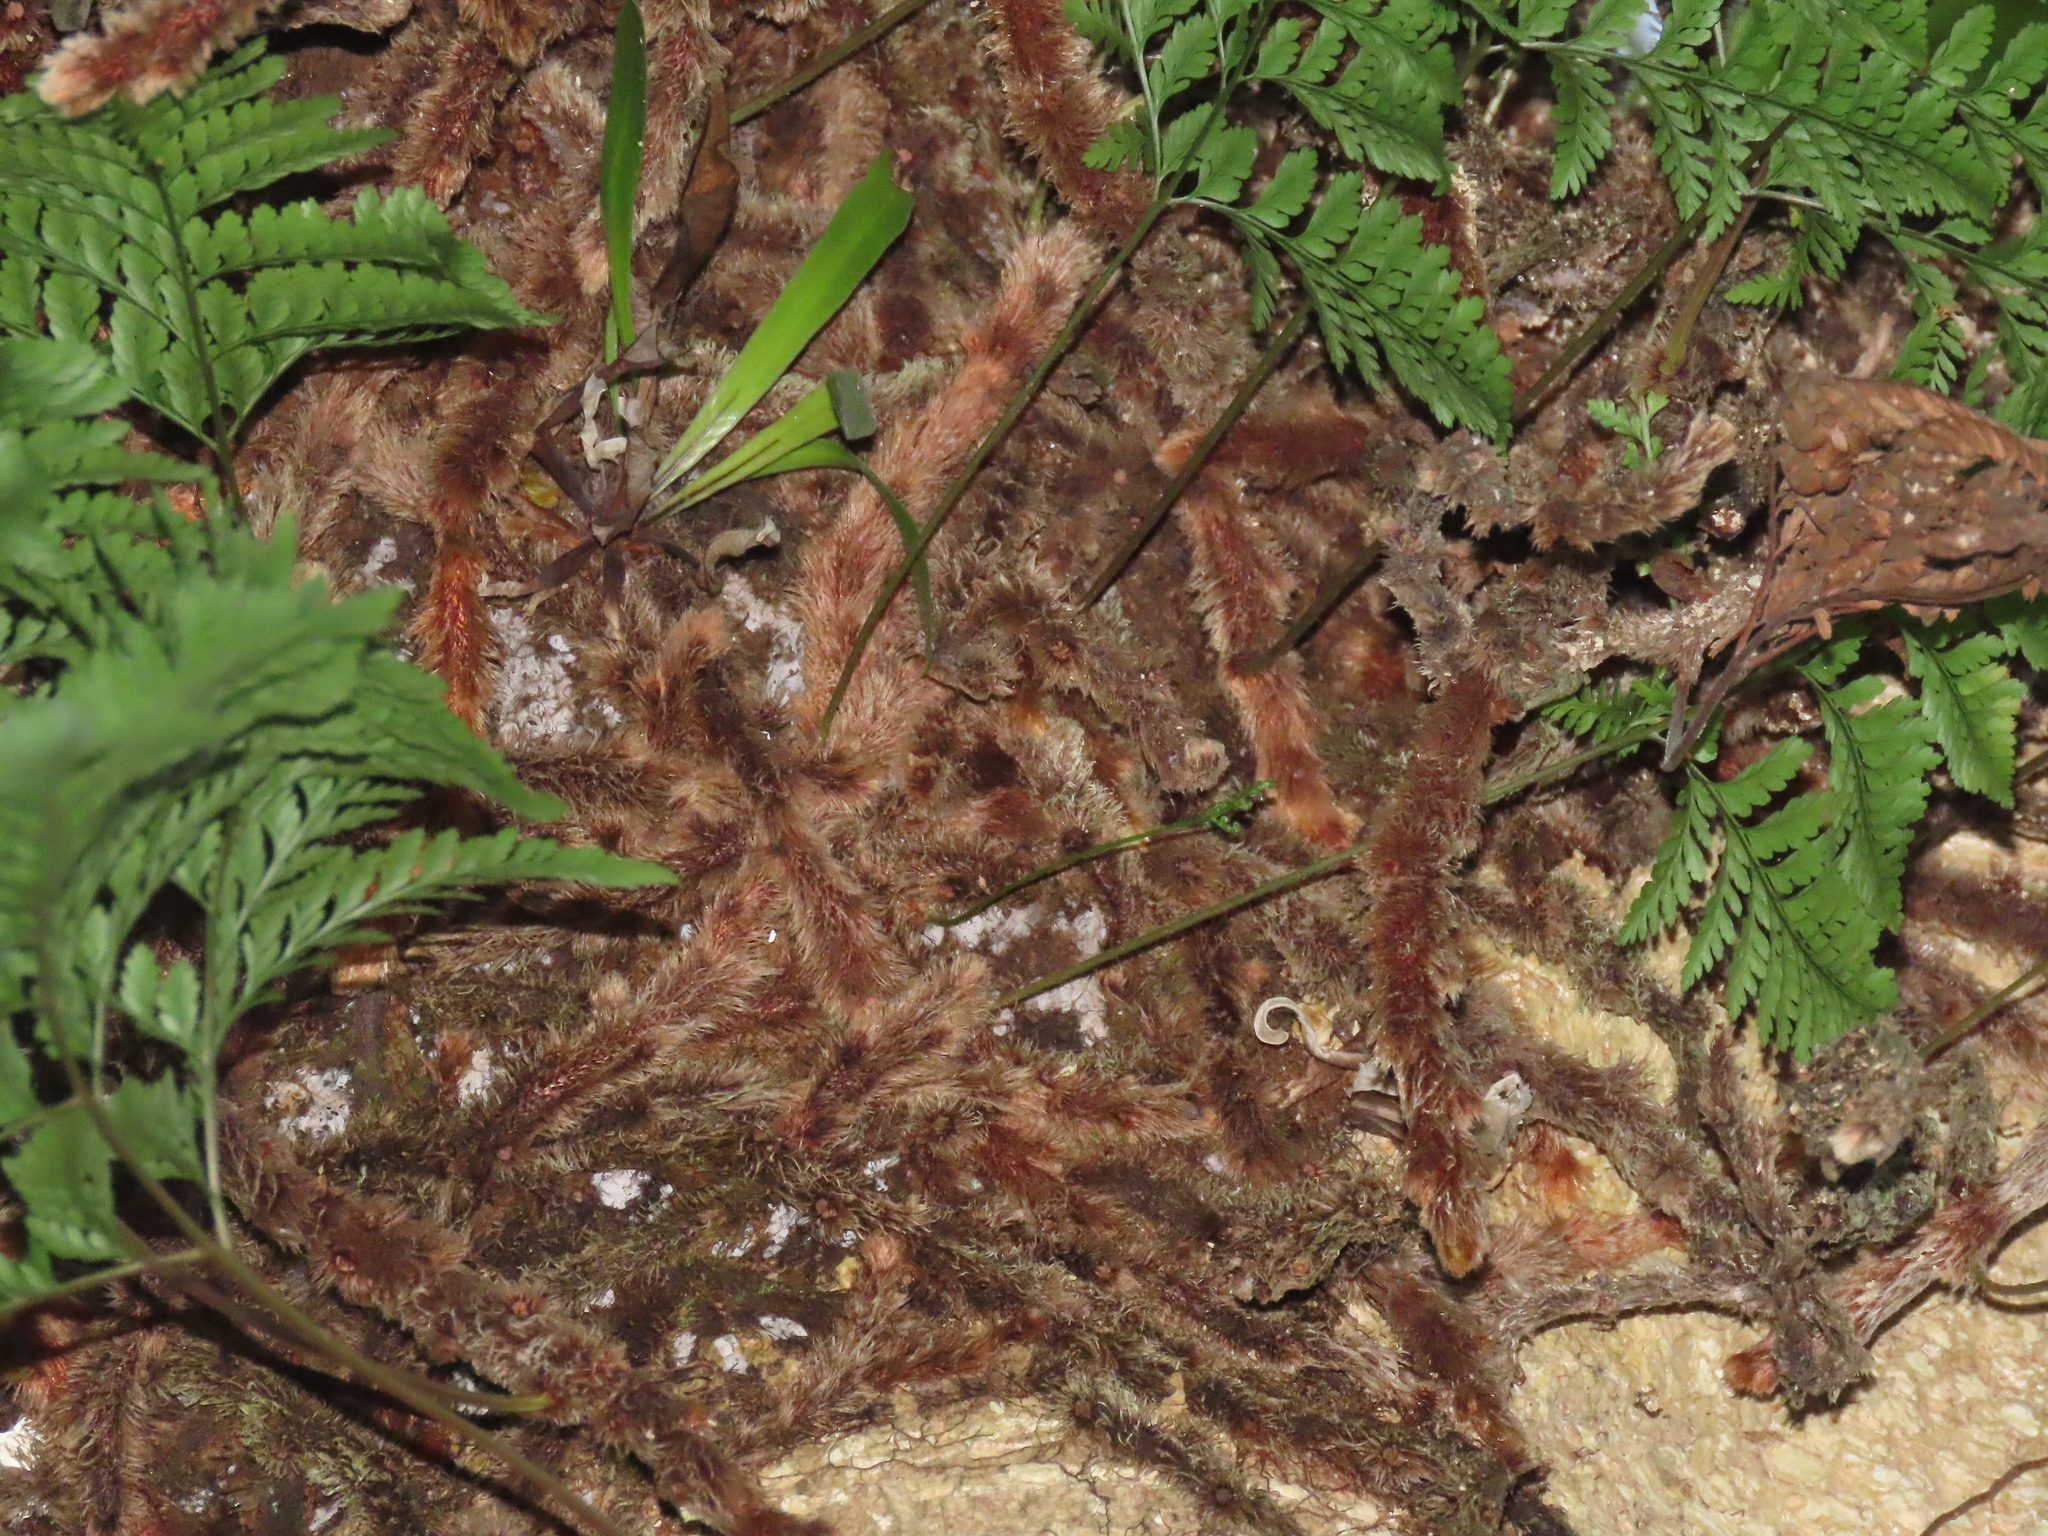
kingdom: Plantae
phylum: Tracheophyta
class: Polypodiopsida
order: Polypodiales
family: Davalliaceae
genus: Davallia
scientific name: Davallia trichomanoides
